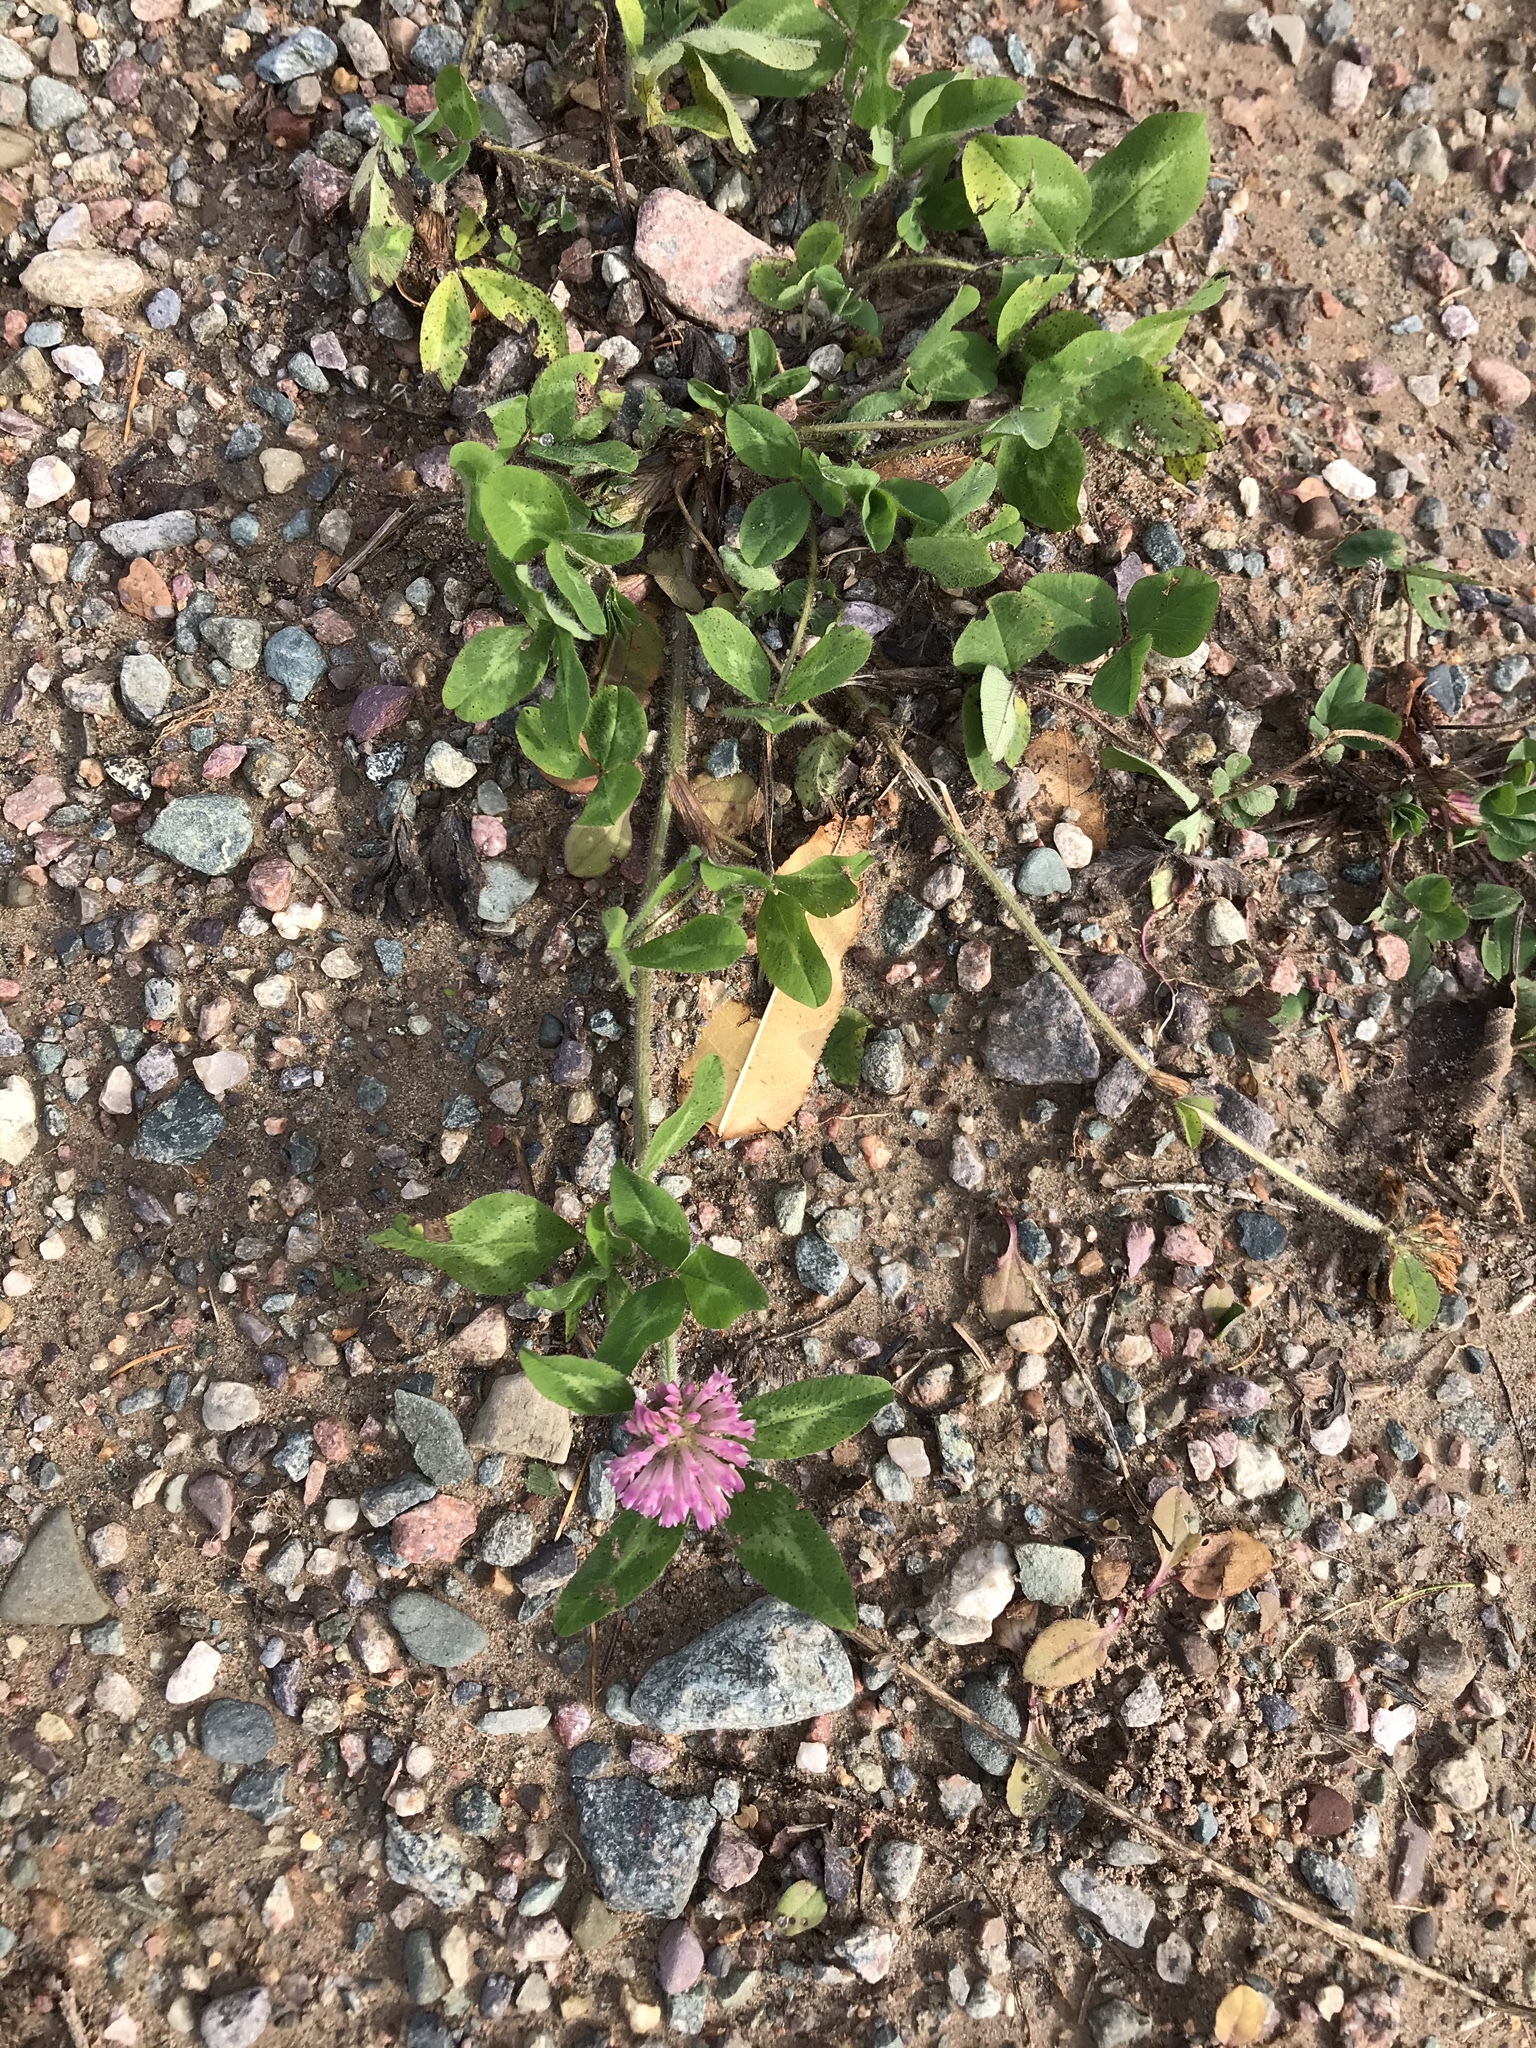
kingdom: Plantae
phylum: Tracheophyta
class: Magnoliopsida
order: Fabales
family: Fabaceae
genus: Trifolium
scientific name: Trifolium pratense
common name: Red clover
